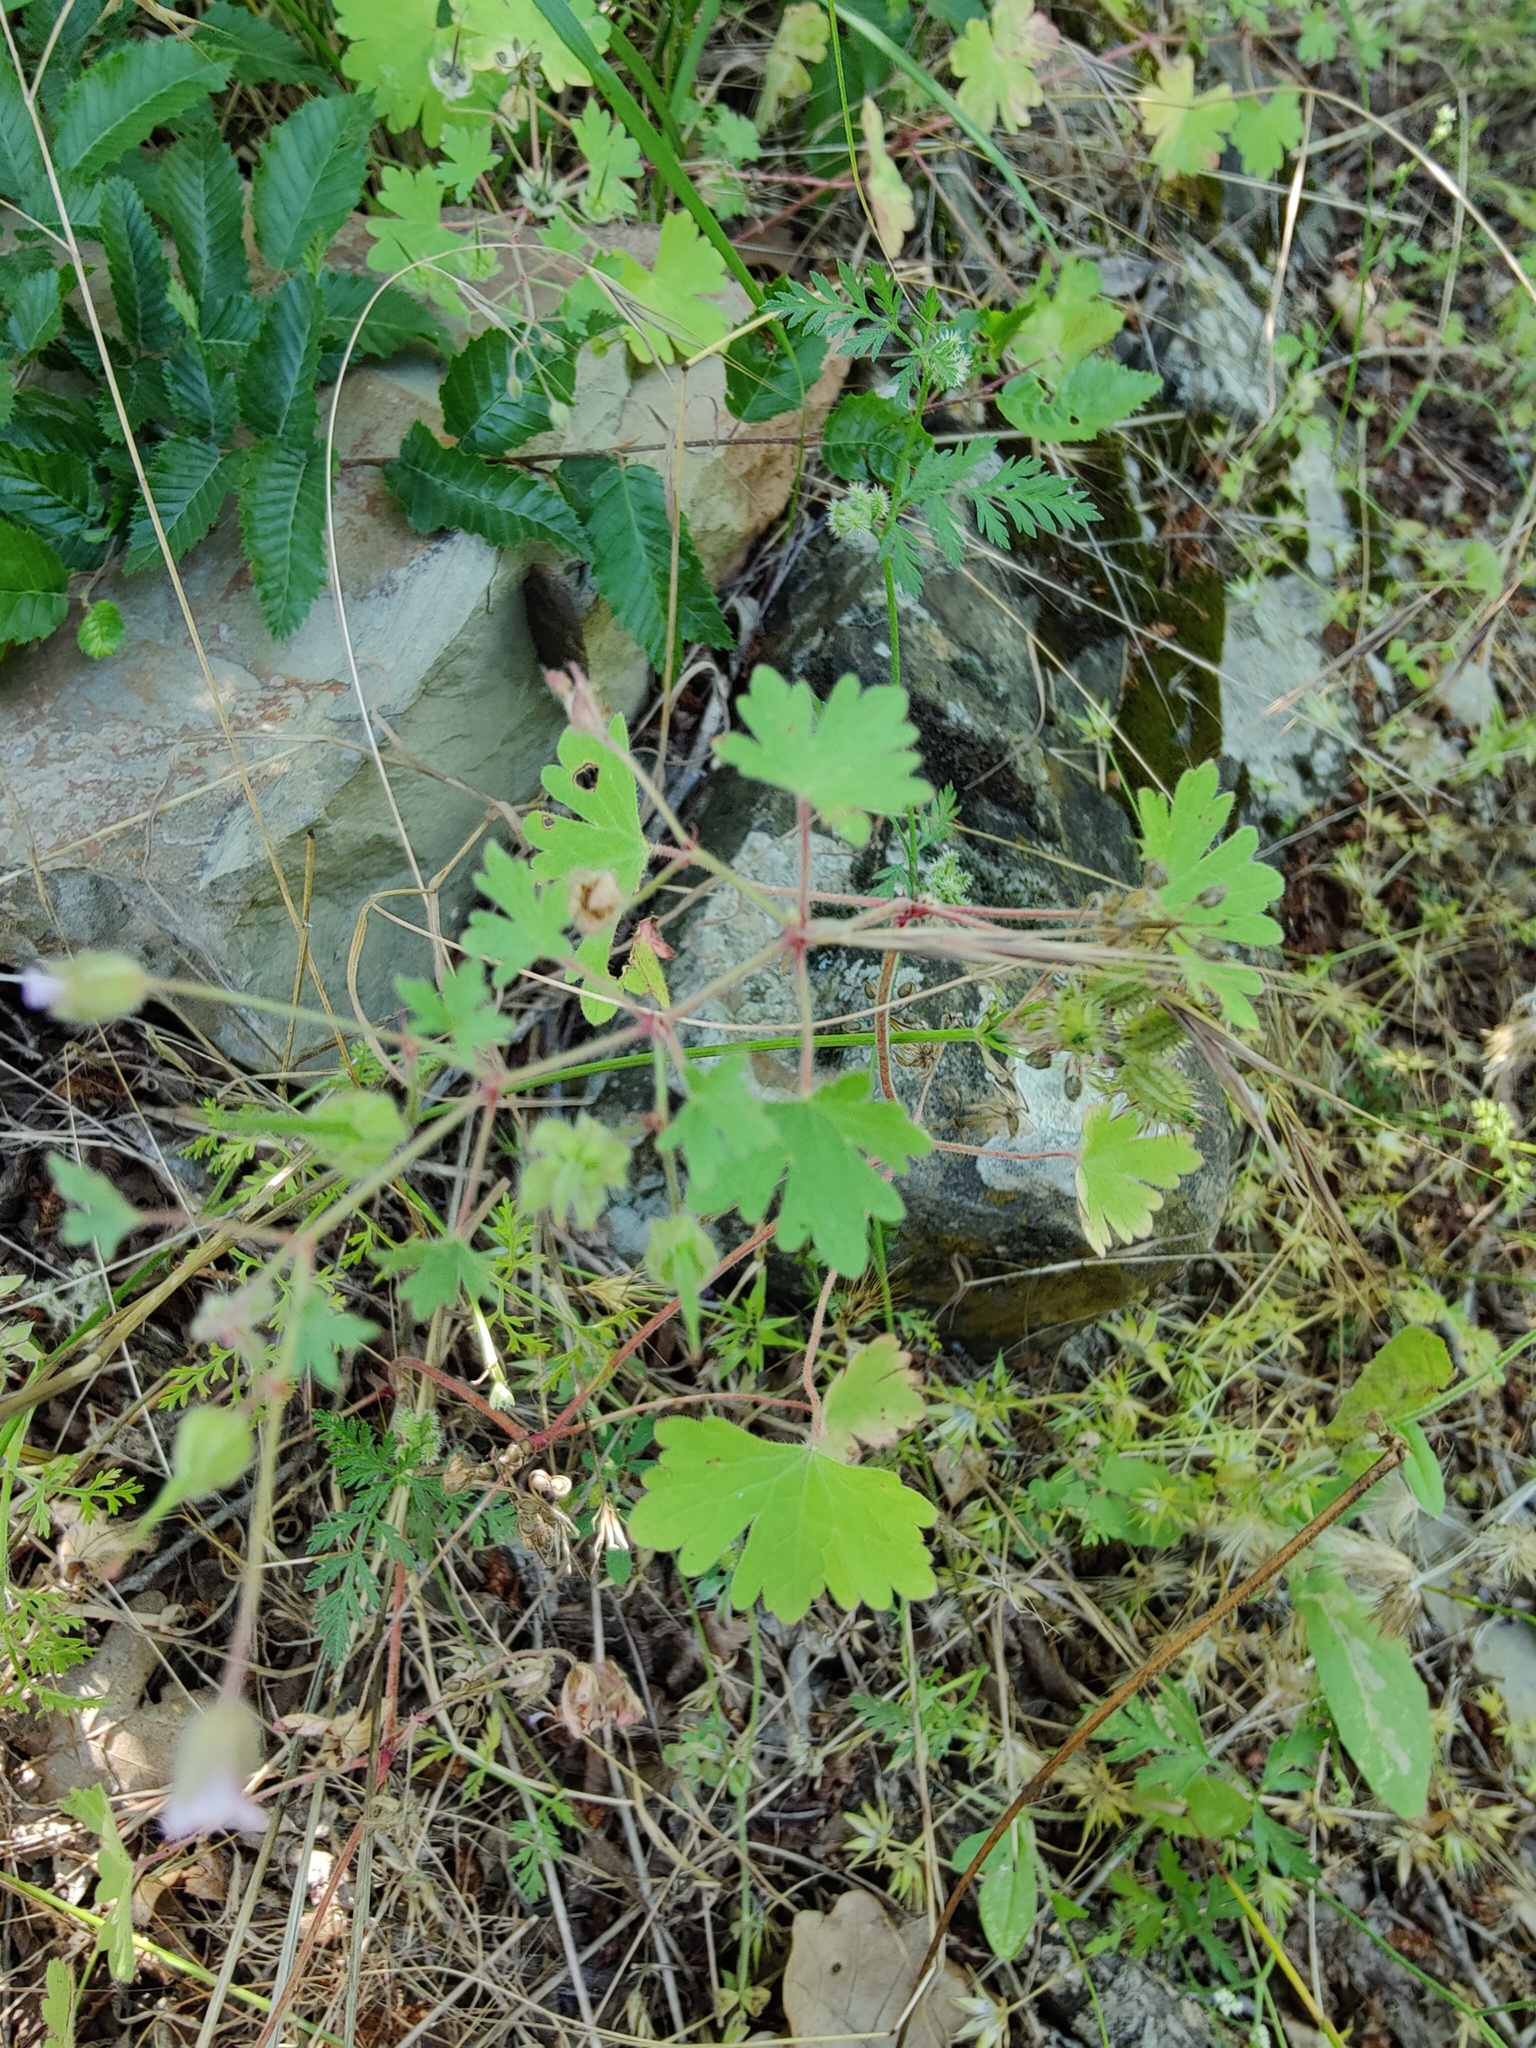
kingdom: Plantae
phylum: Tracheophyta
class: Magnoliopsida
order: Geraniales
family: Geraniaceae
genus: Geranium
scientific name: Geranium rotundifolium
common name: Round-leaved crane's-bill
